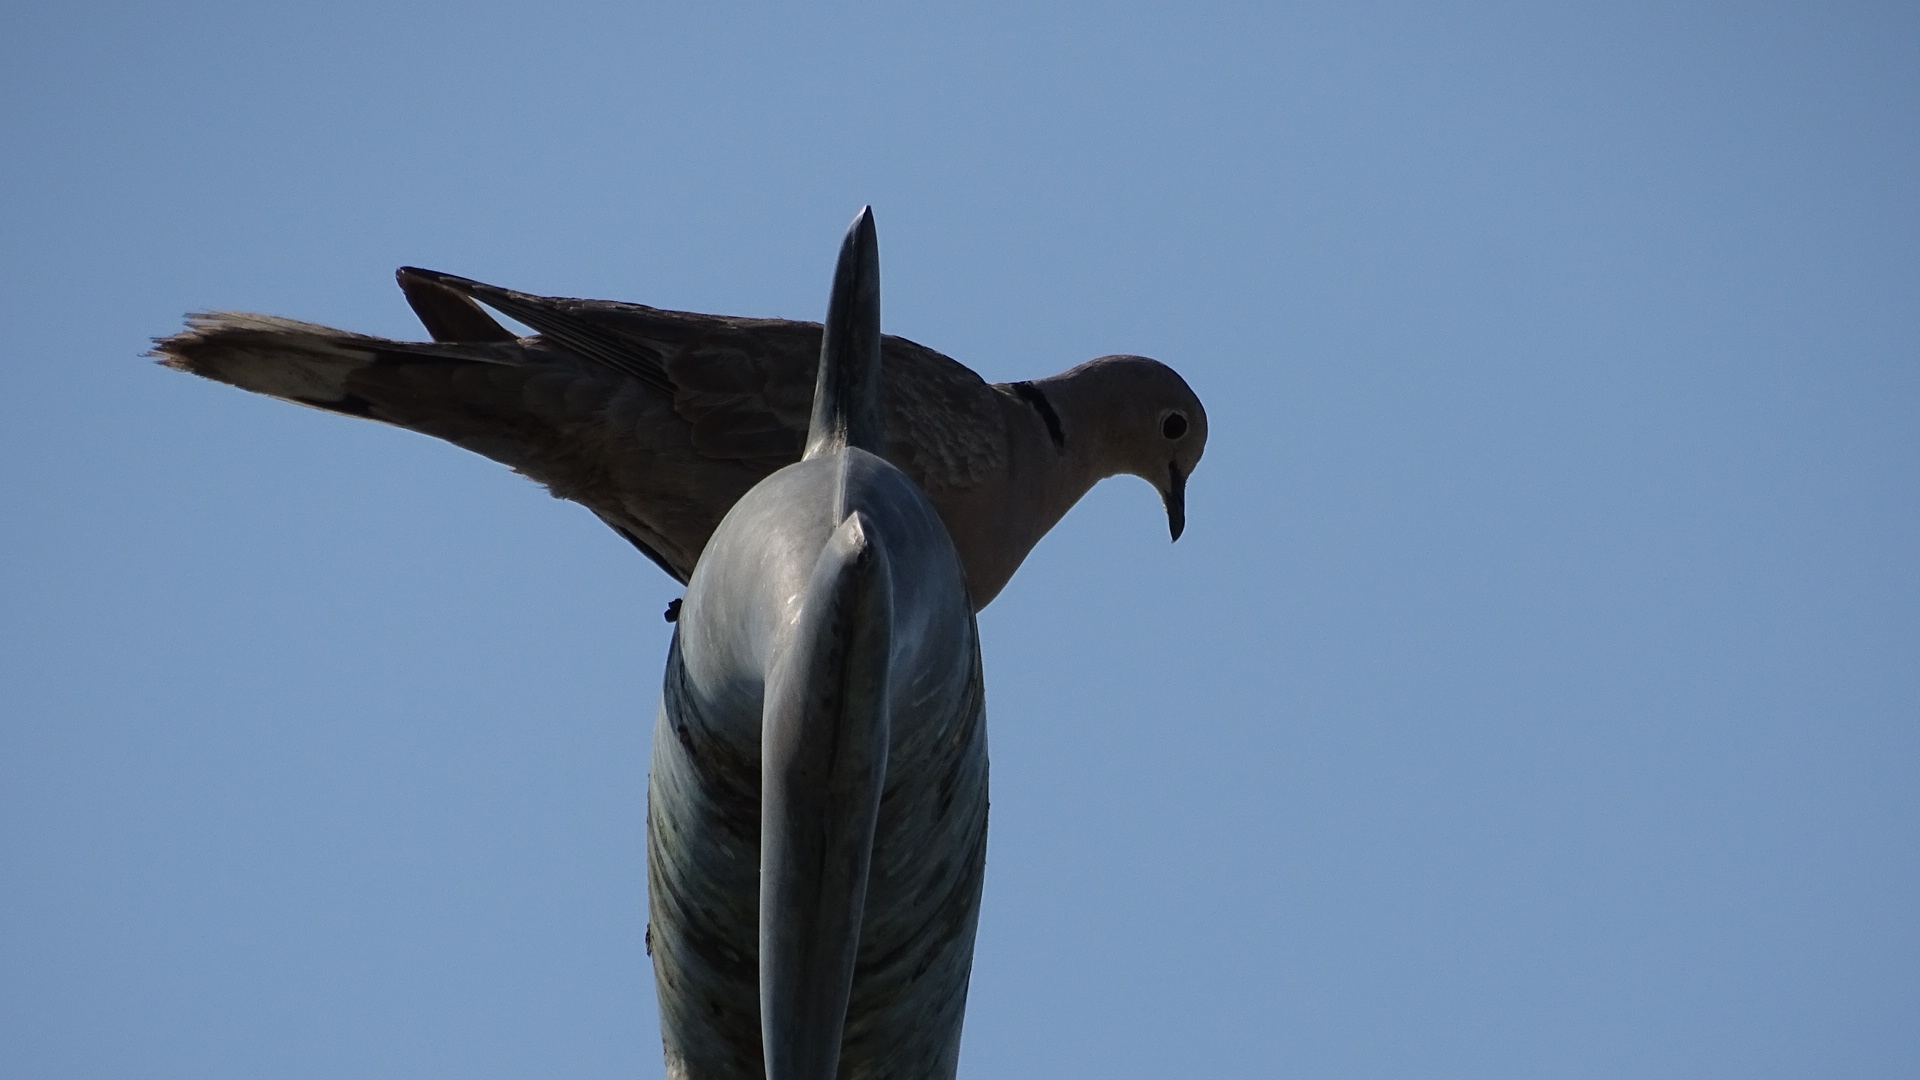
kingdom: Animalia
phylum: Chordata
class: Aves
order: Columbiformes
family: Columbidae
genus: Streptopelia
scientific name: Streptopelia decaocto
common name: Eurasian collared dove
